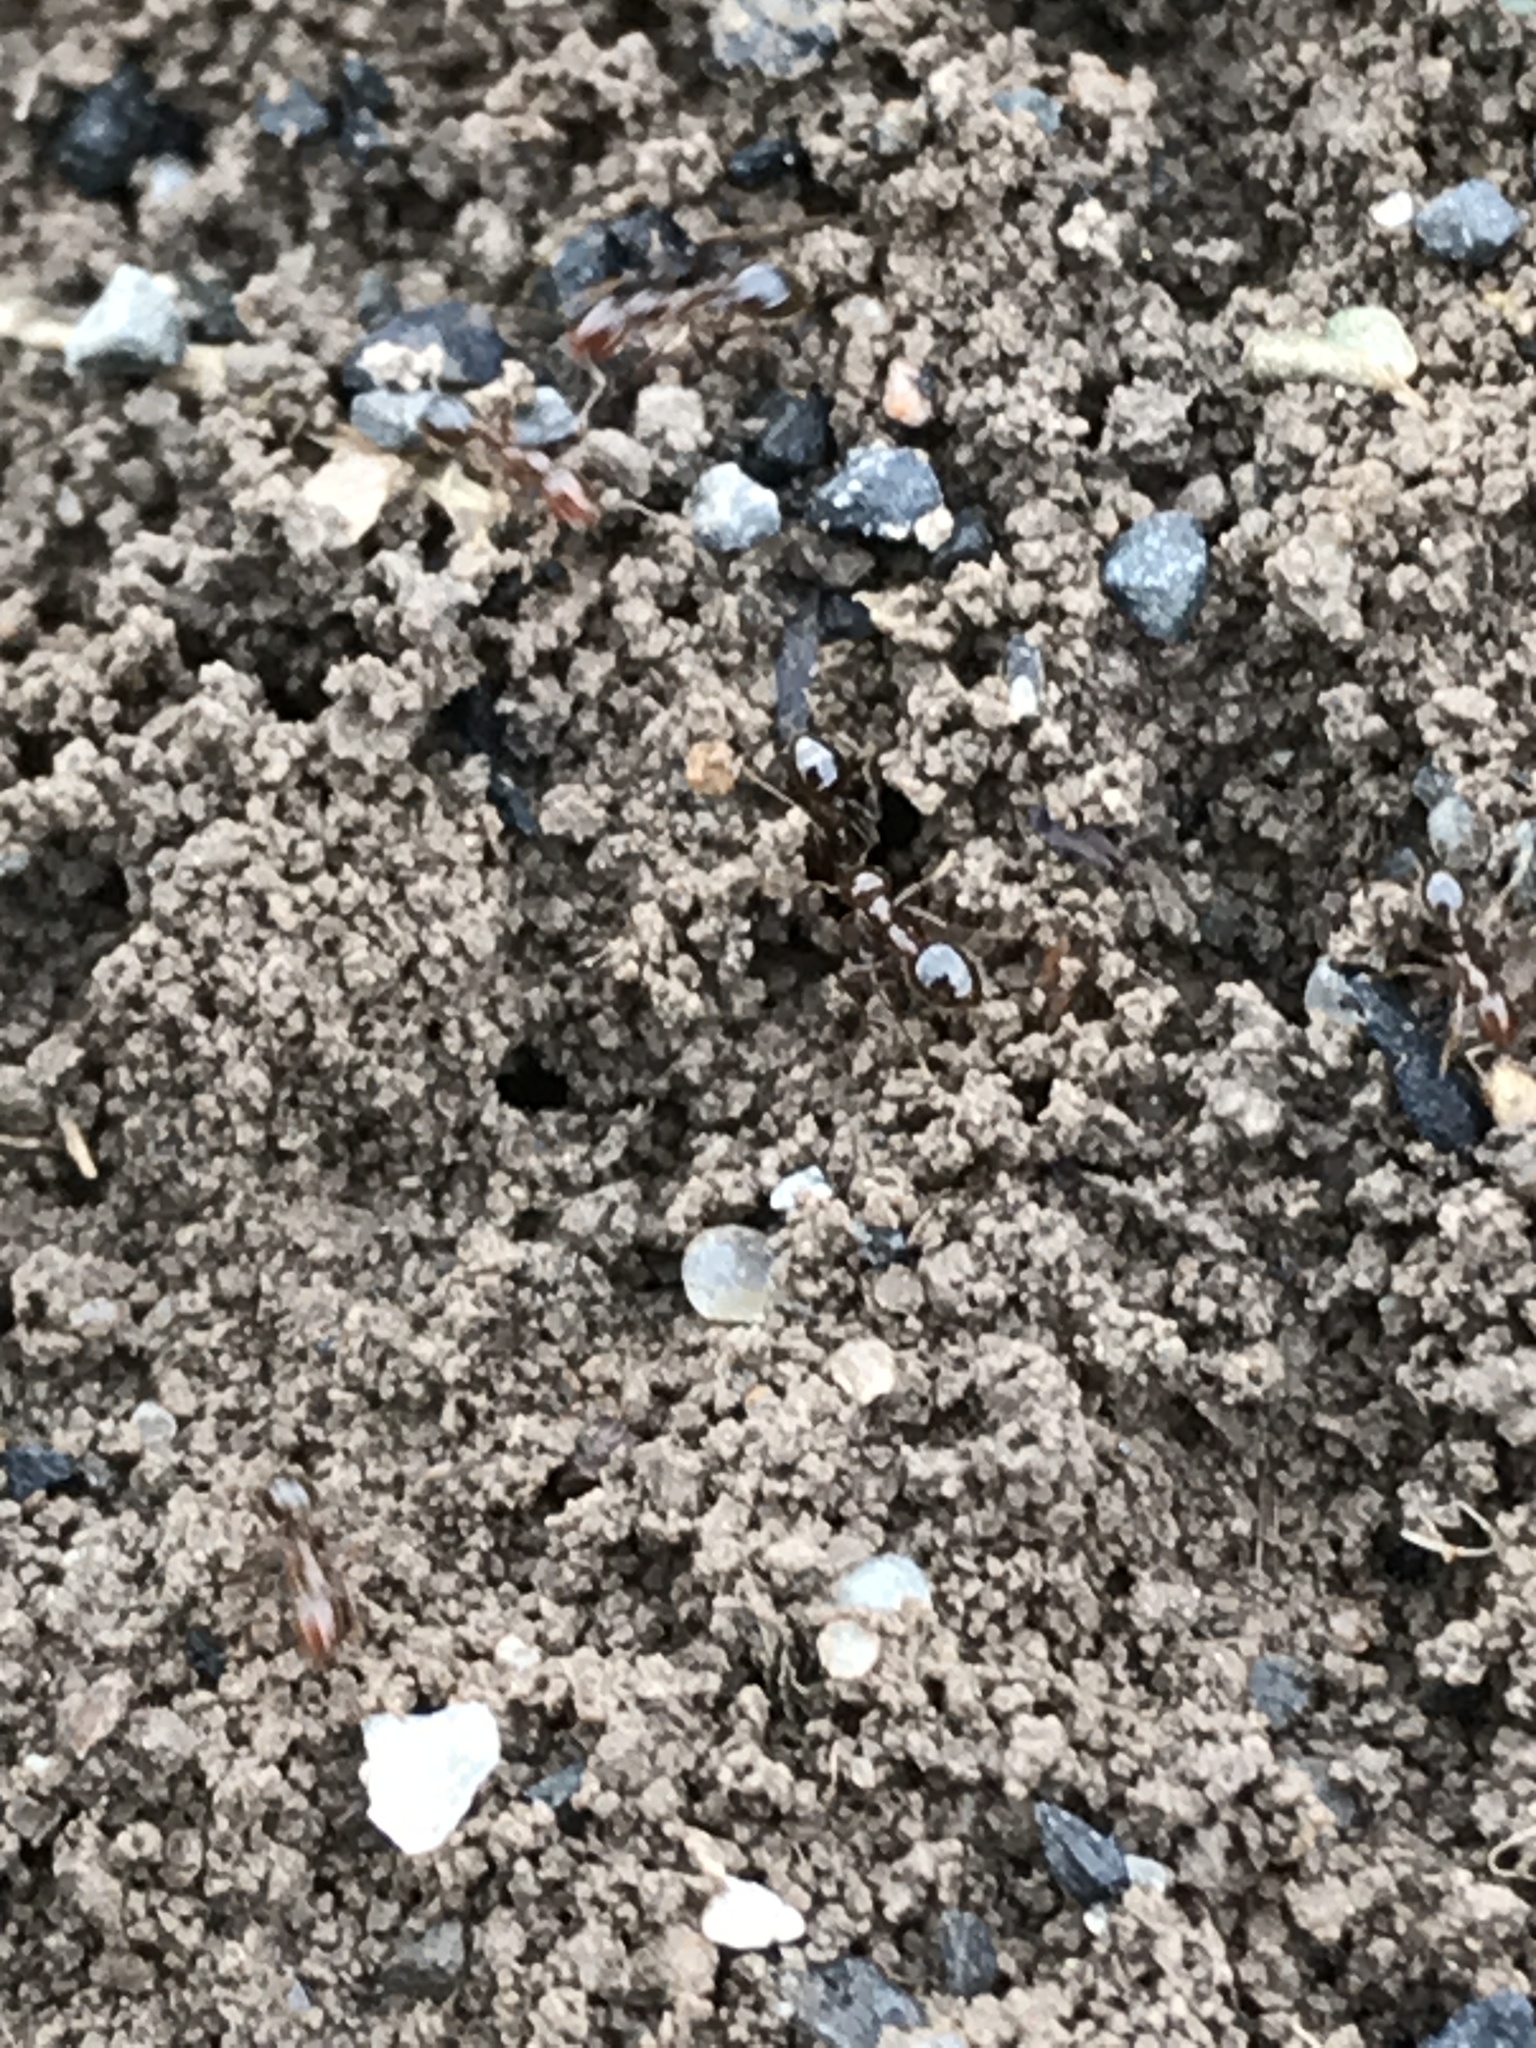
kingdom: Animalia
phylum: Arthropoda
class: Insecta
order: Hymenoptera
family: Formicidae
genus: Solenopsis
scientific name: Solenopsis invicta
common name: Red imported fire ant
